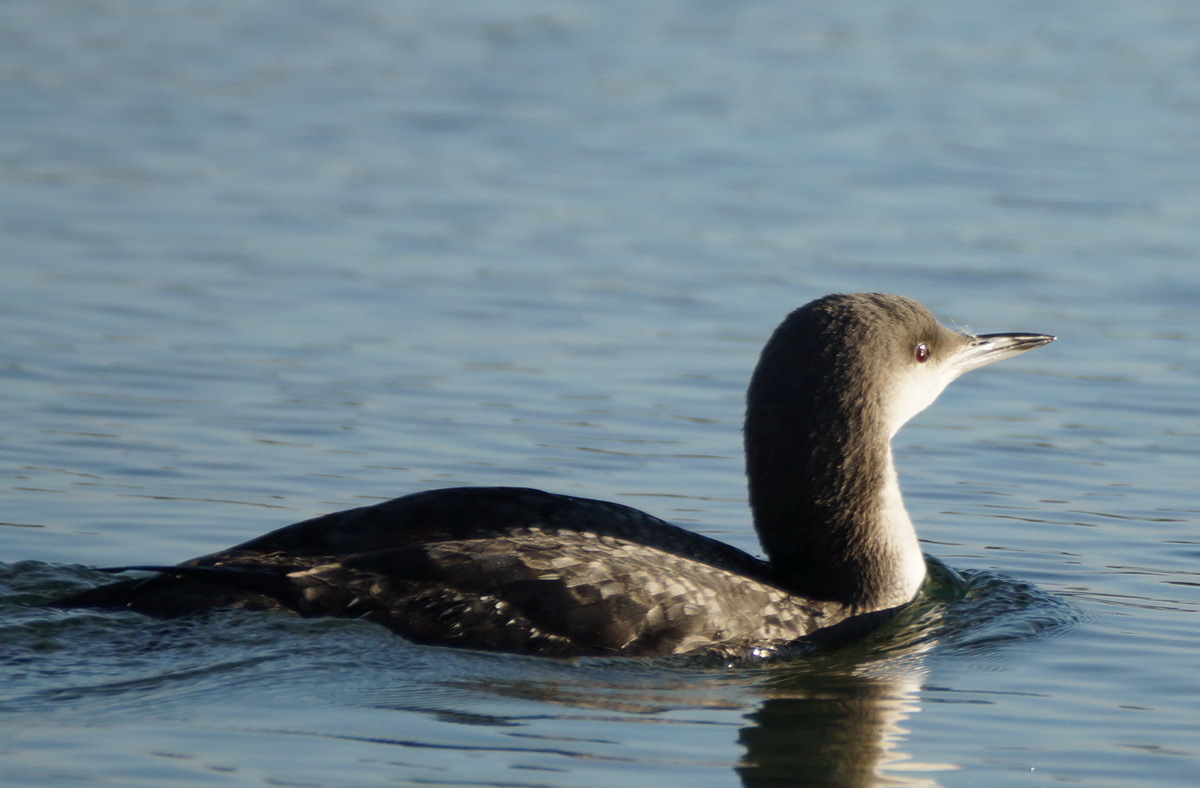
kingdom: Animalia
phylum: Chordata
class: Aves
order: Gaviiformes
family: Gaviidae
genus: Gavia
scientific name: Gavia arctica
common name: Black-throated loon
